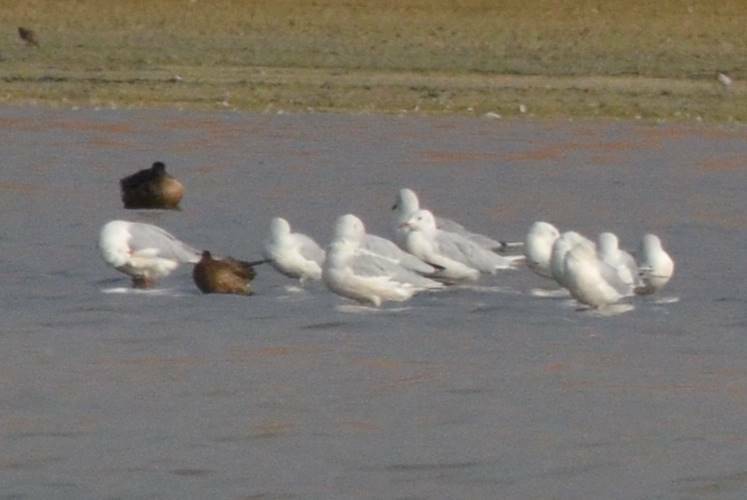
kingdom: Animalia
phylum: Chordata
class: Aves
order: Charadriiformes
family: Laridae
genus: Chroicocephalus
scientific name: Chroicocephalus genei
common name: Slender-billed gull
